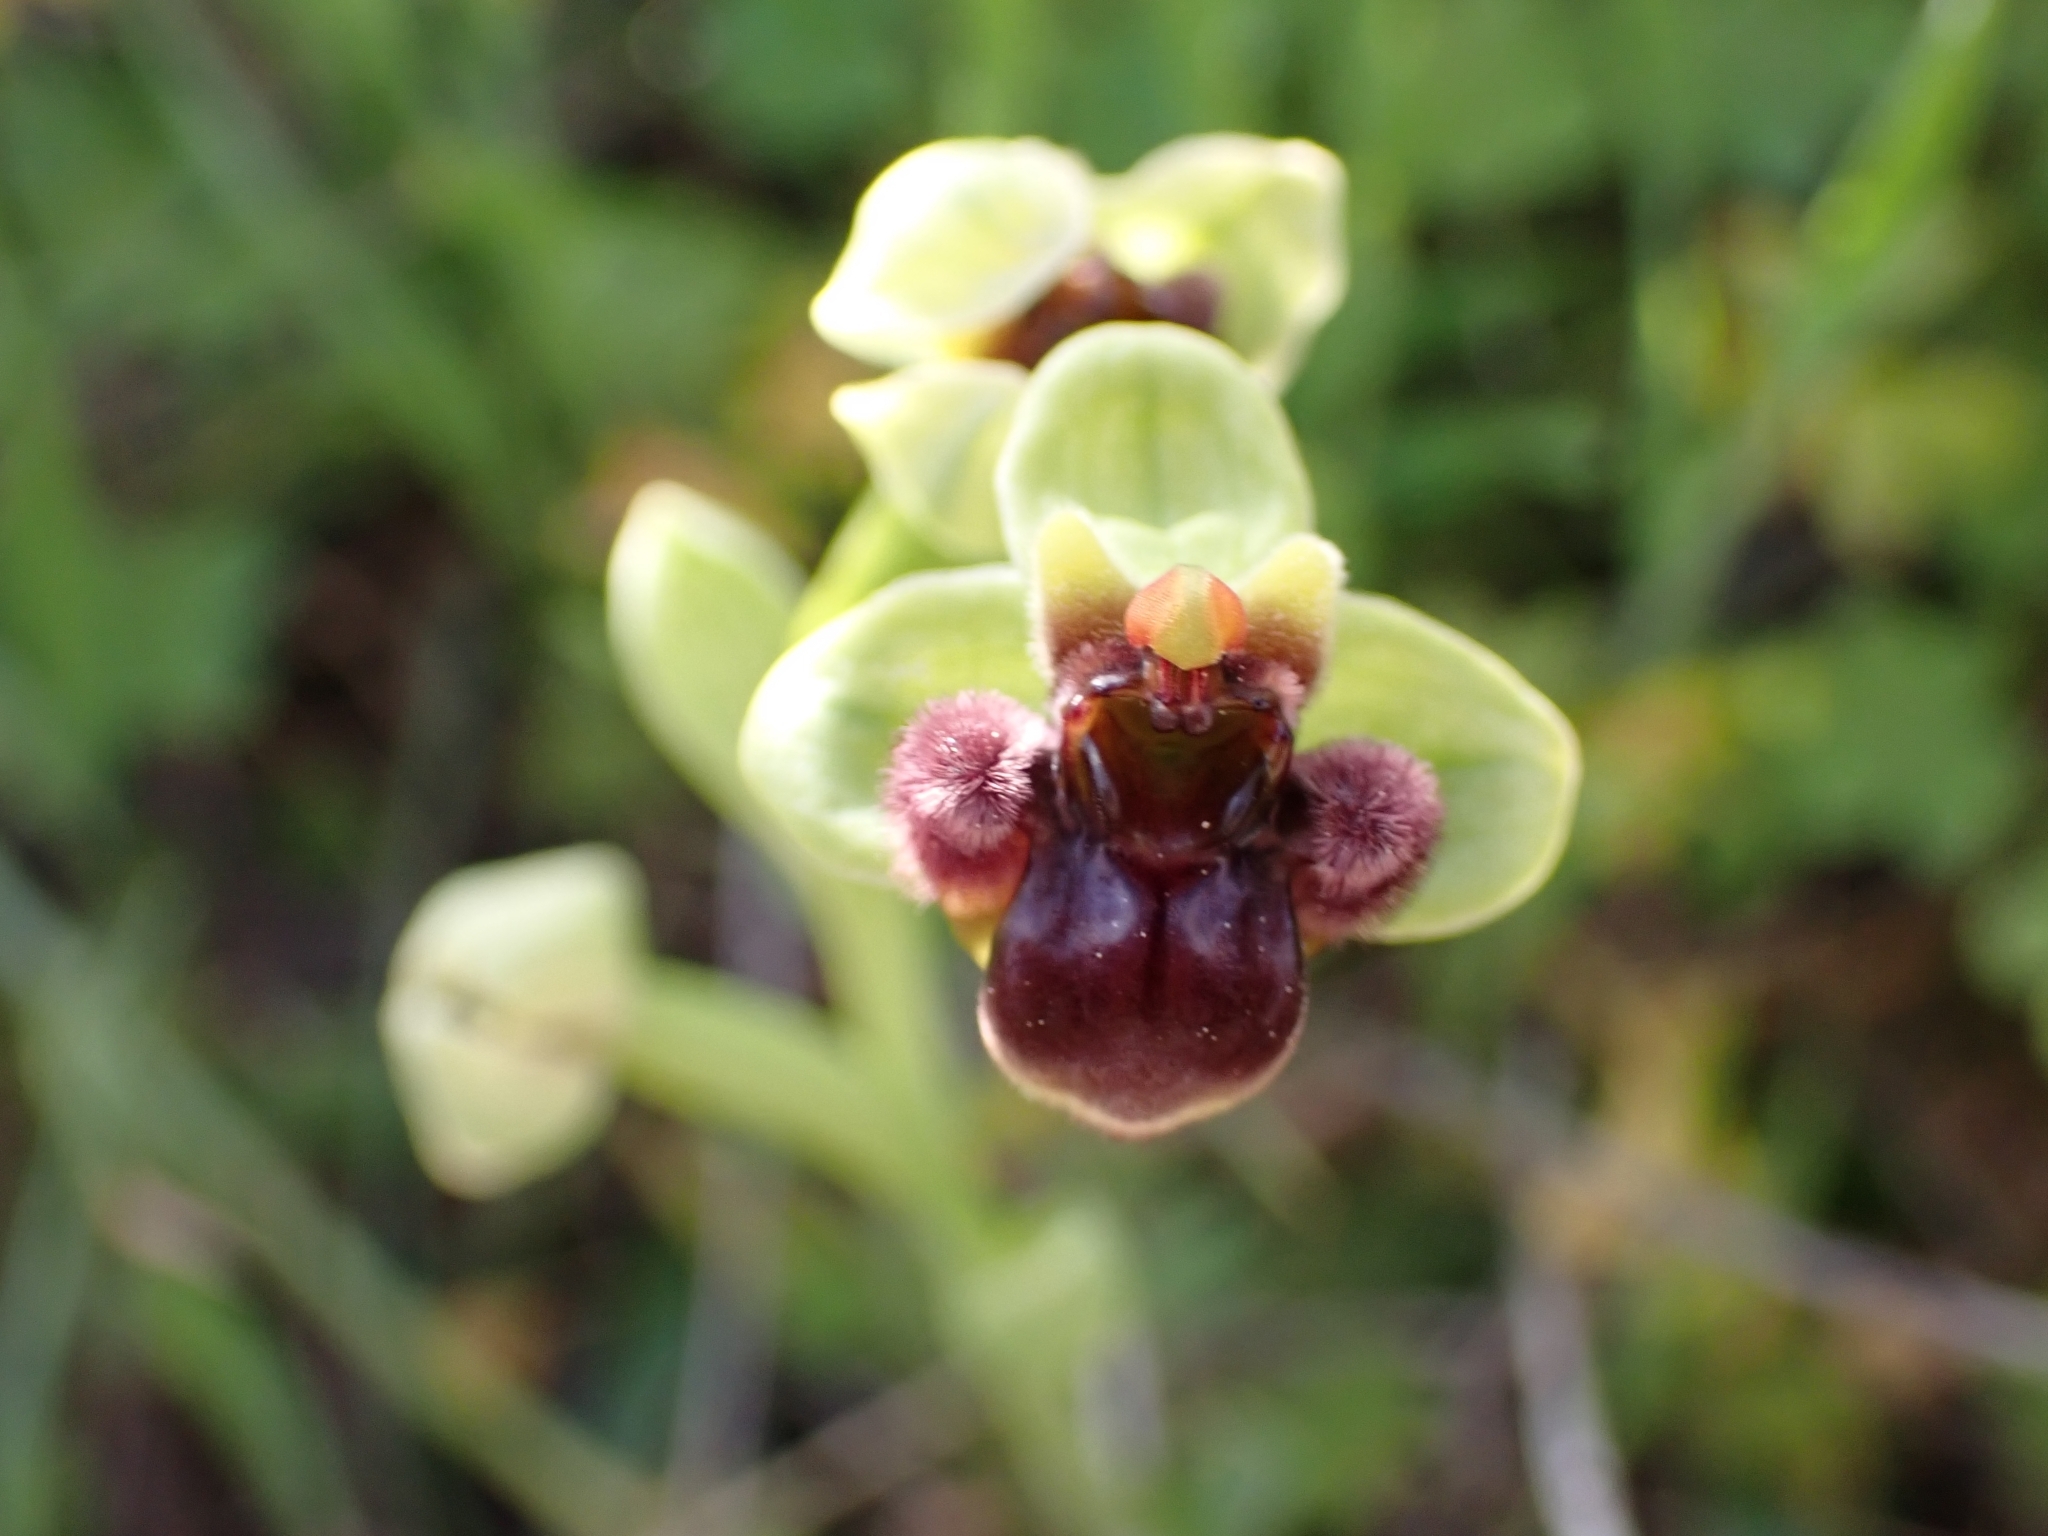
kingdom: Plantae
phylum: Tracheophyta
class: Liliopsida
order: Asparagales
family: Orchidaceae
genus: Ophrys
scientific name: Ophrys bombyliflora
